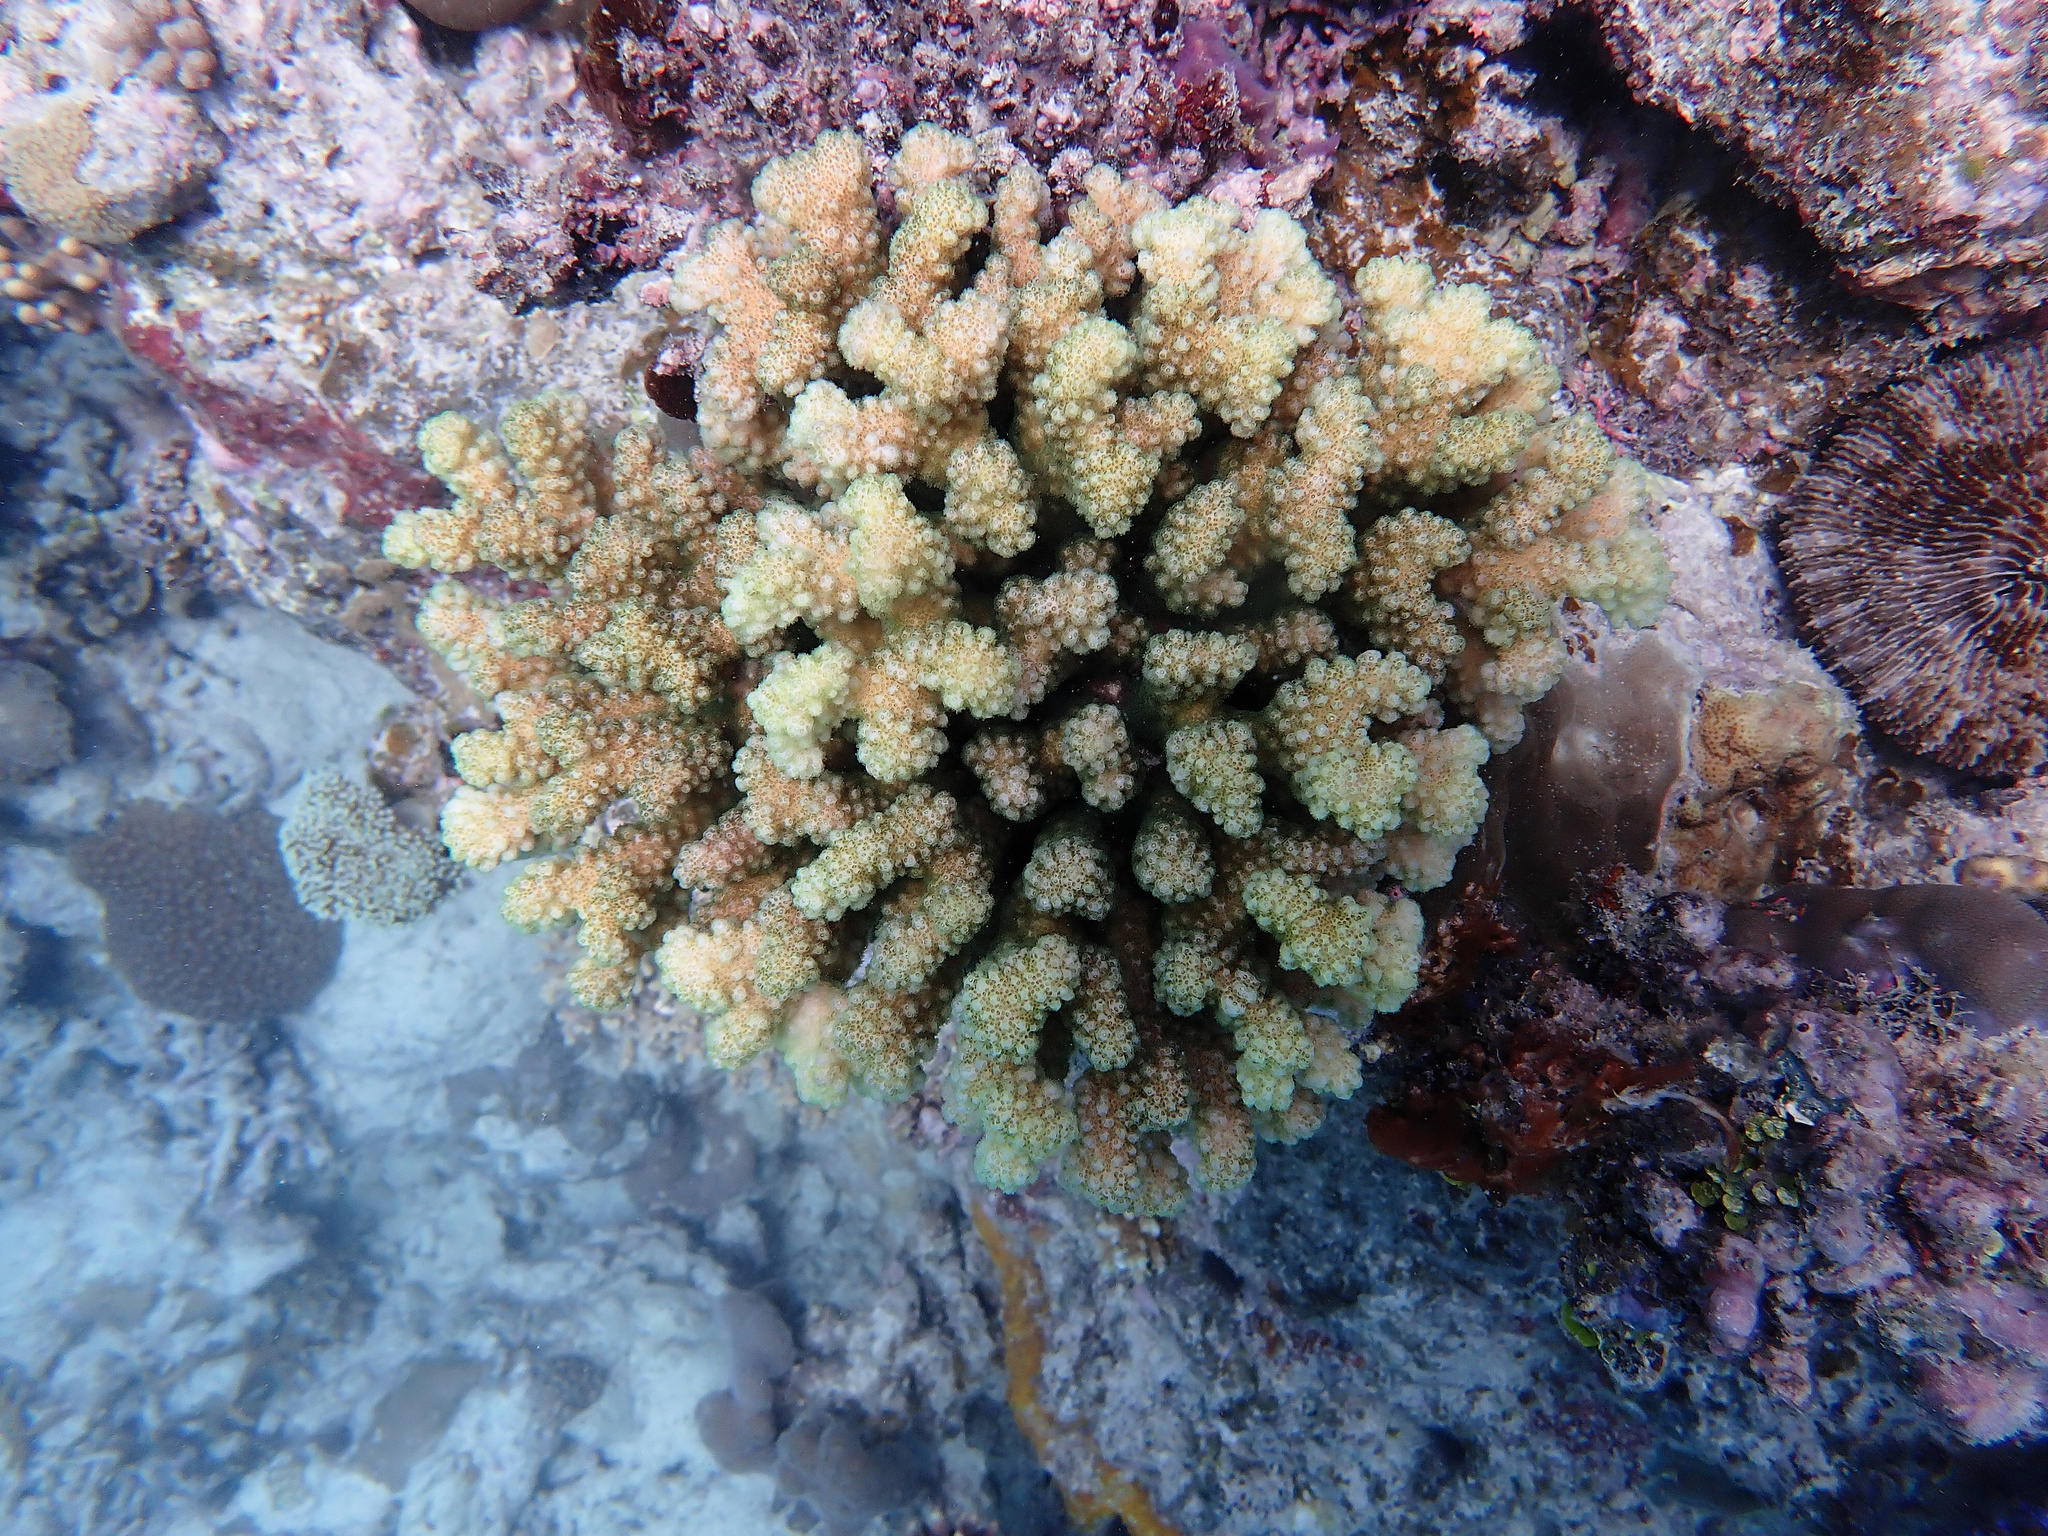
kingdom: Animalia
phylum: Cnidaria
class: Anthozoa
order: Scleractinia
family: Pocilloporidae
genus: Pocillopora
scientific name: Pocillopora verrucosa
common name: Cauliflower coral
